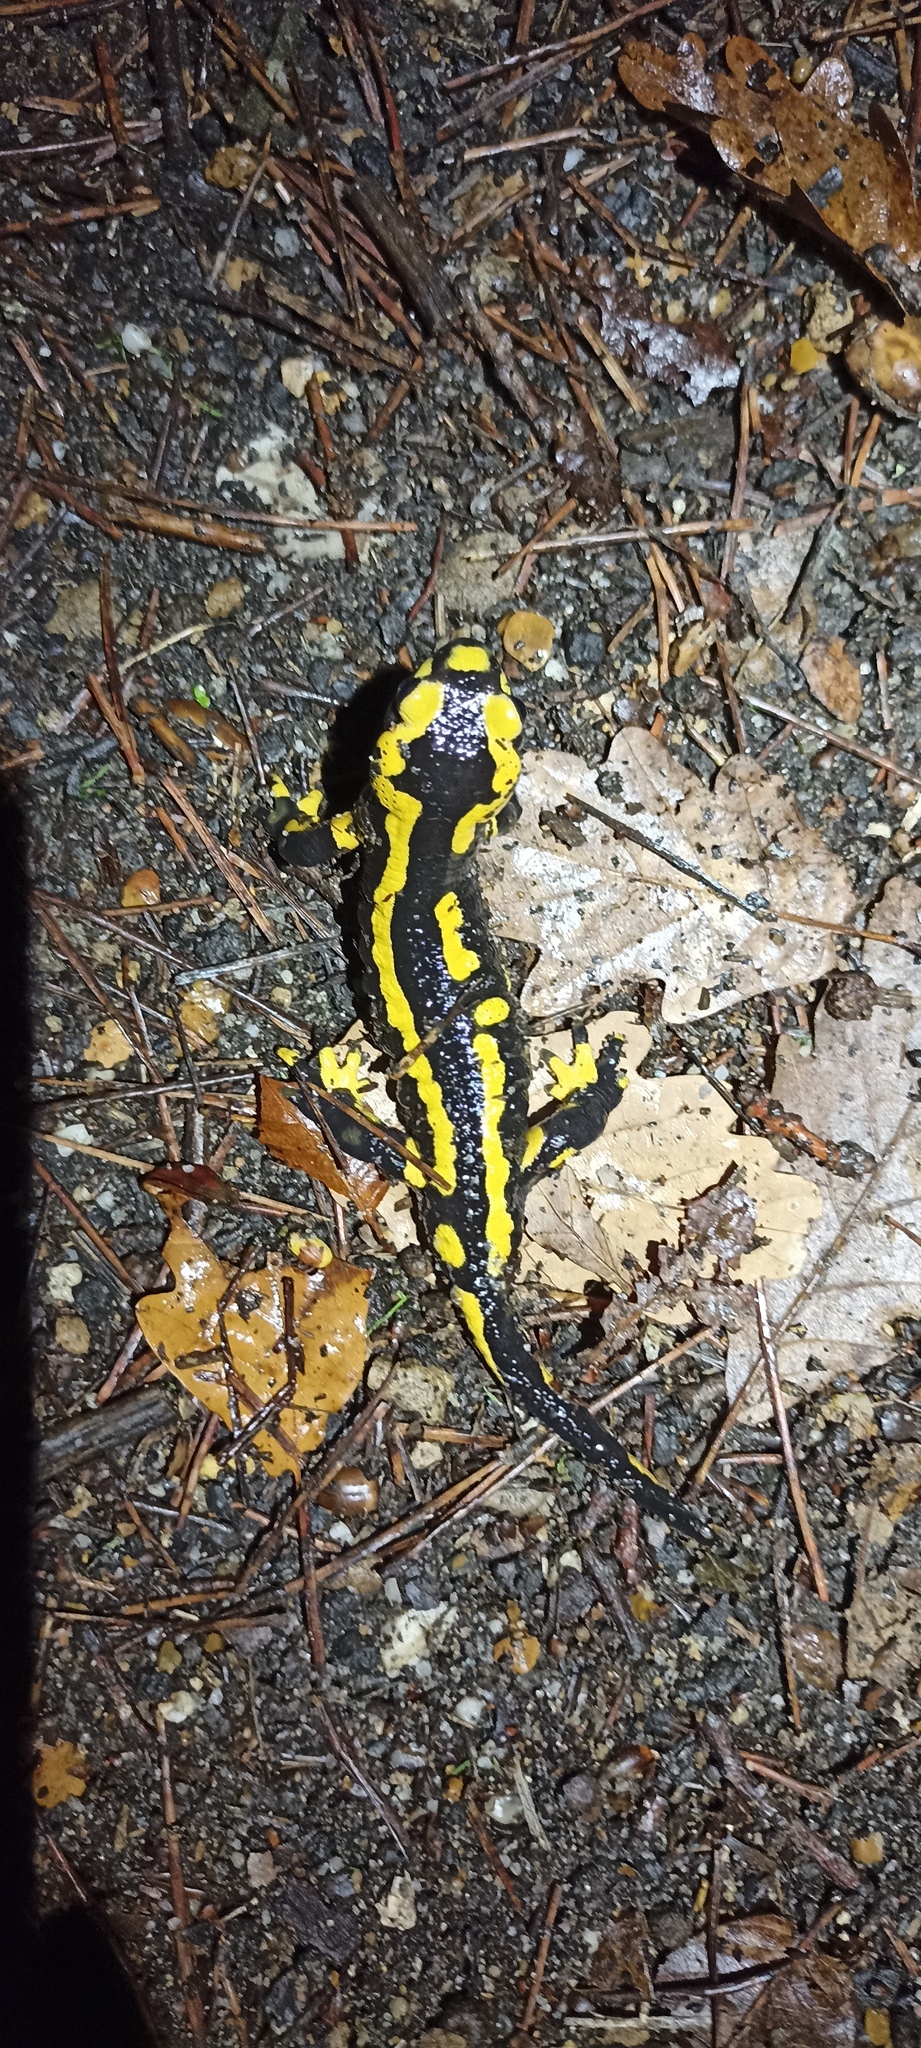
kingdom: Animalia
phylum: Chordata
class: Amphibia
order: Caudata
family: Salamandridae
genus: Salamandra
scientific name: Salamandra salamandra
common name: Fire salamander
